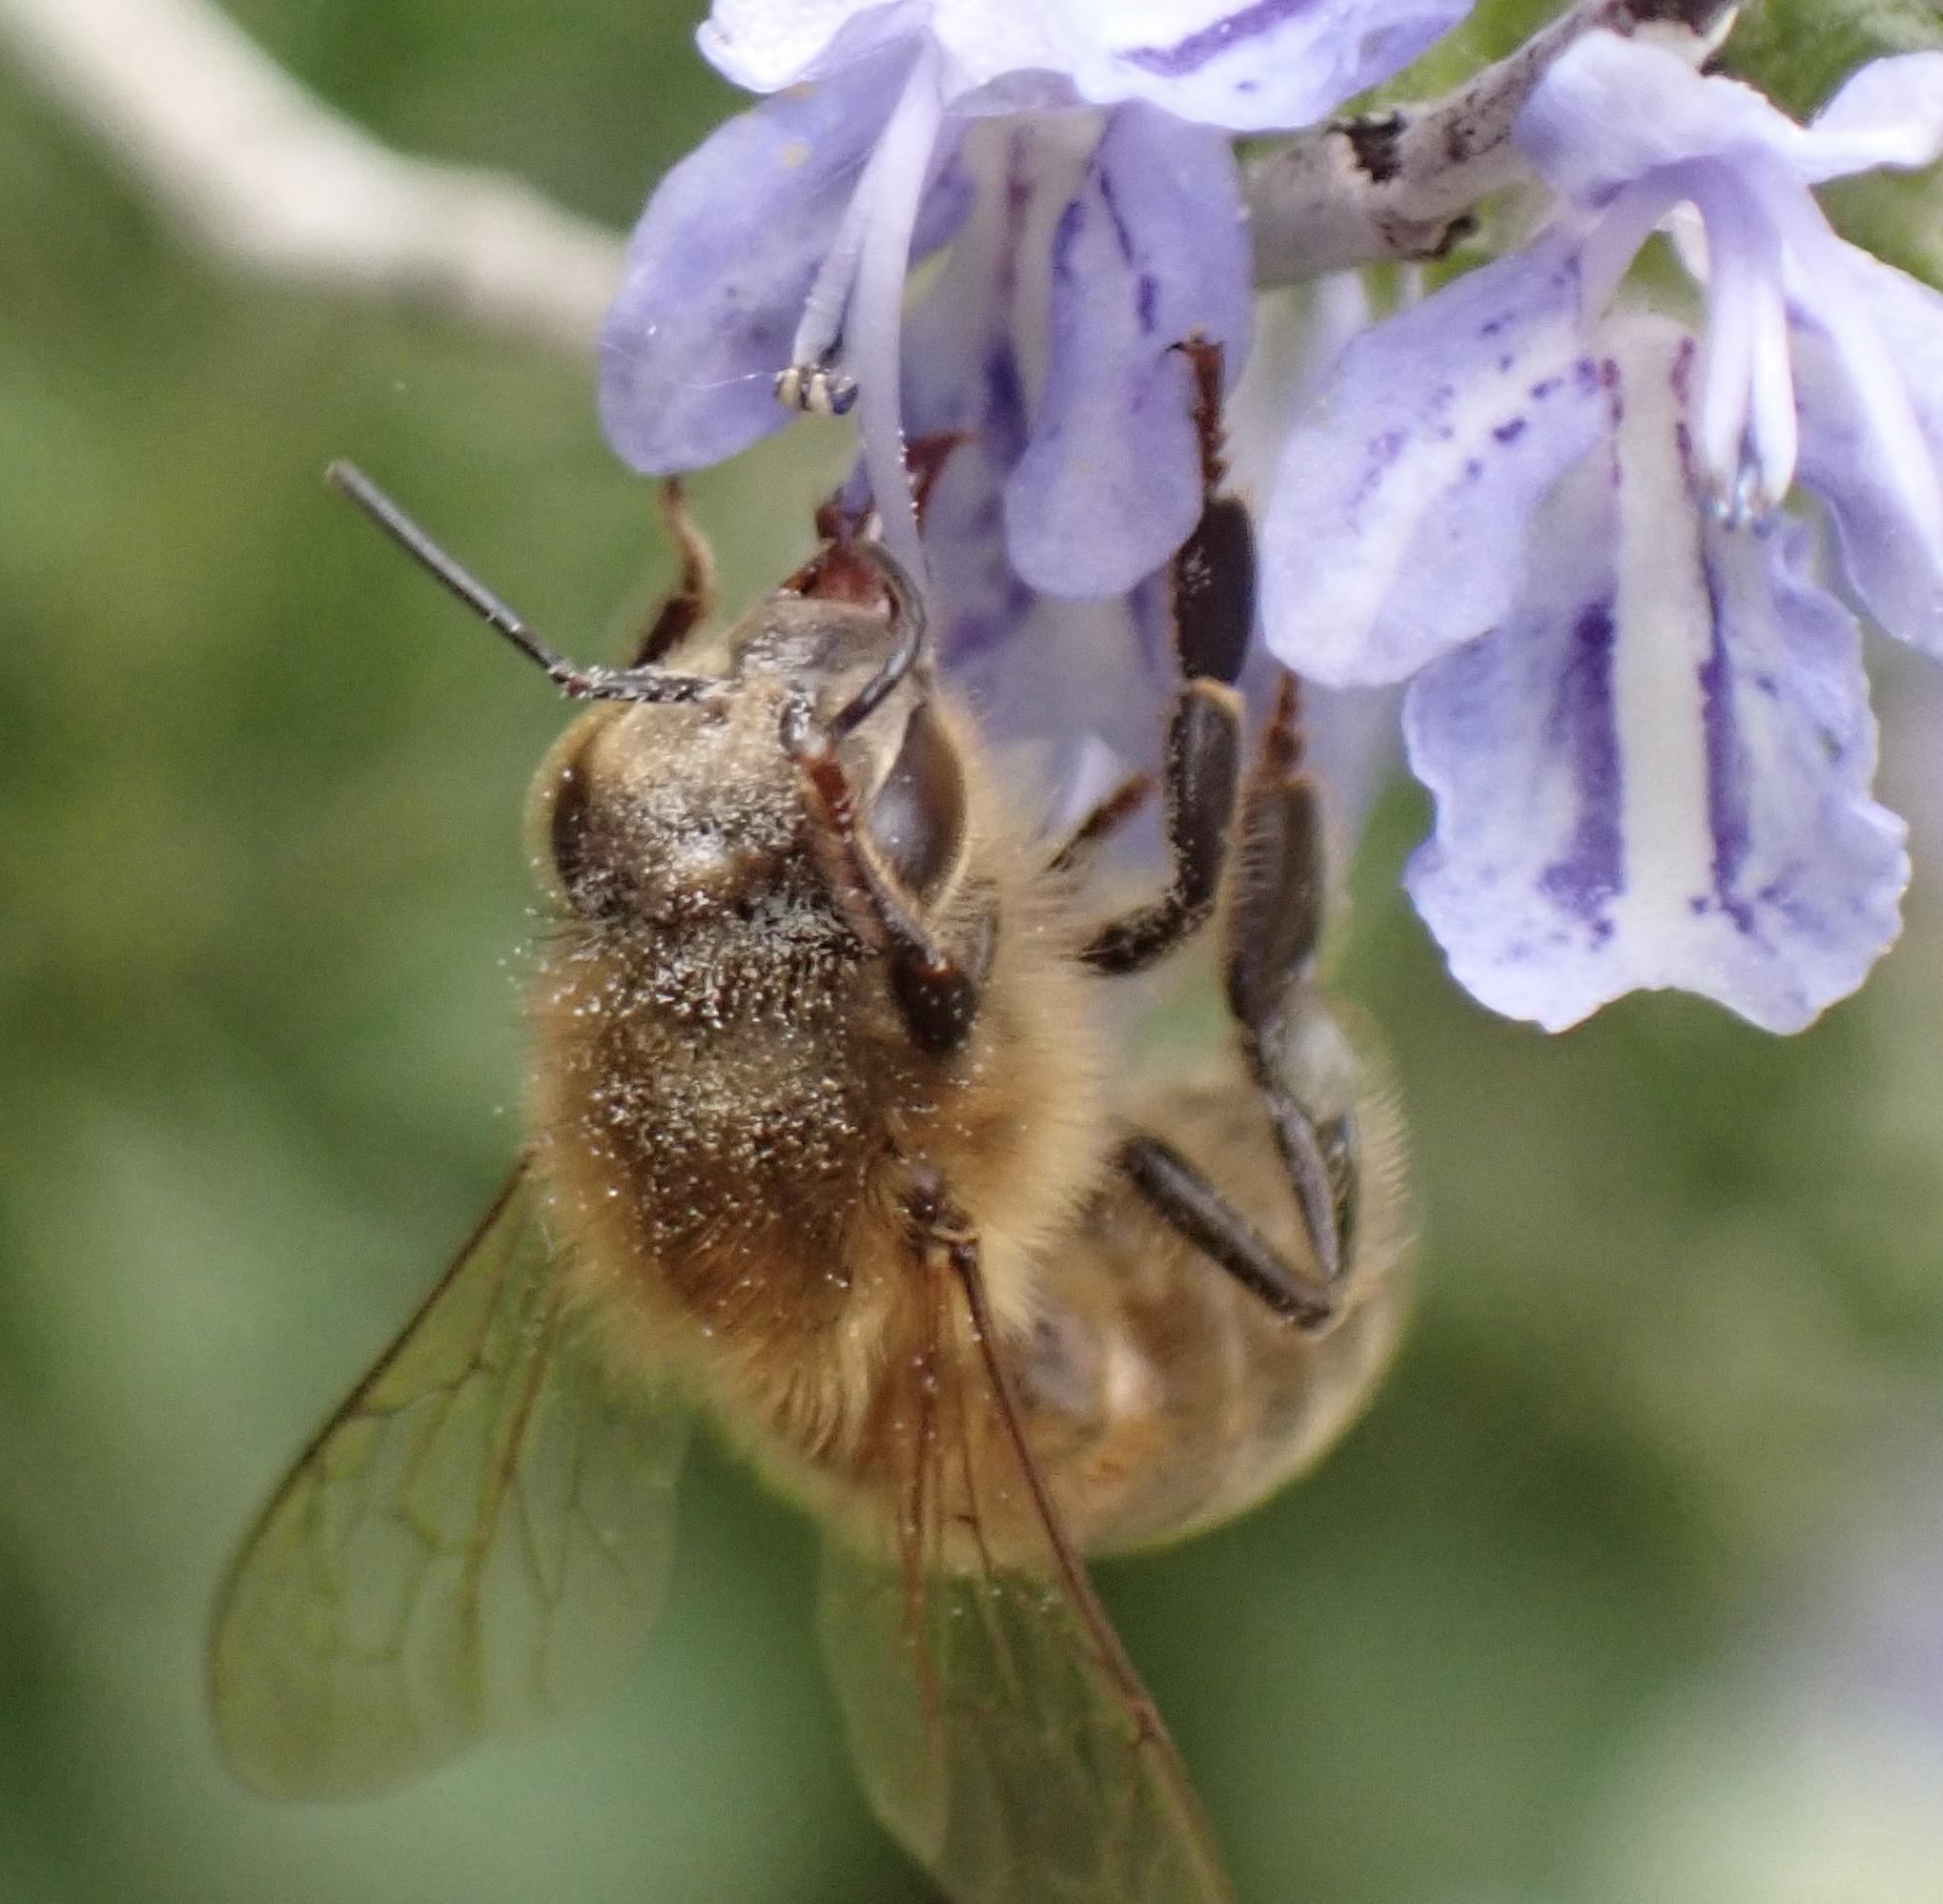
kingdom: Animalia
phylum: Arthropoda
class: Insecta
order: Hymenoptera
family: Apidae
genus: Apis
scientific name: Apis mellifera
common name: Honey bee
